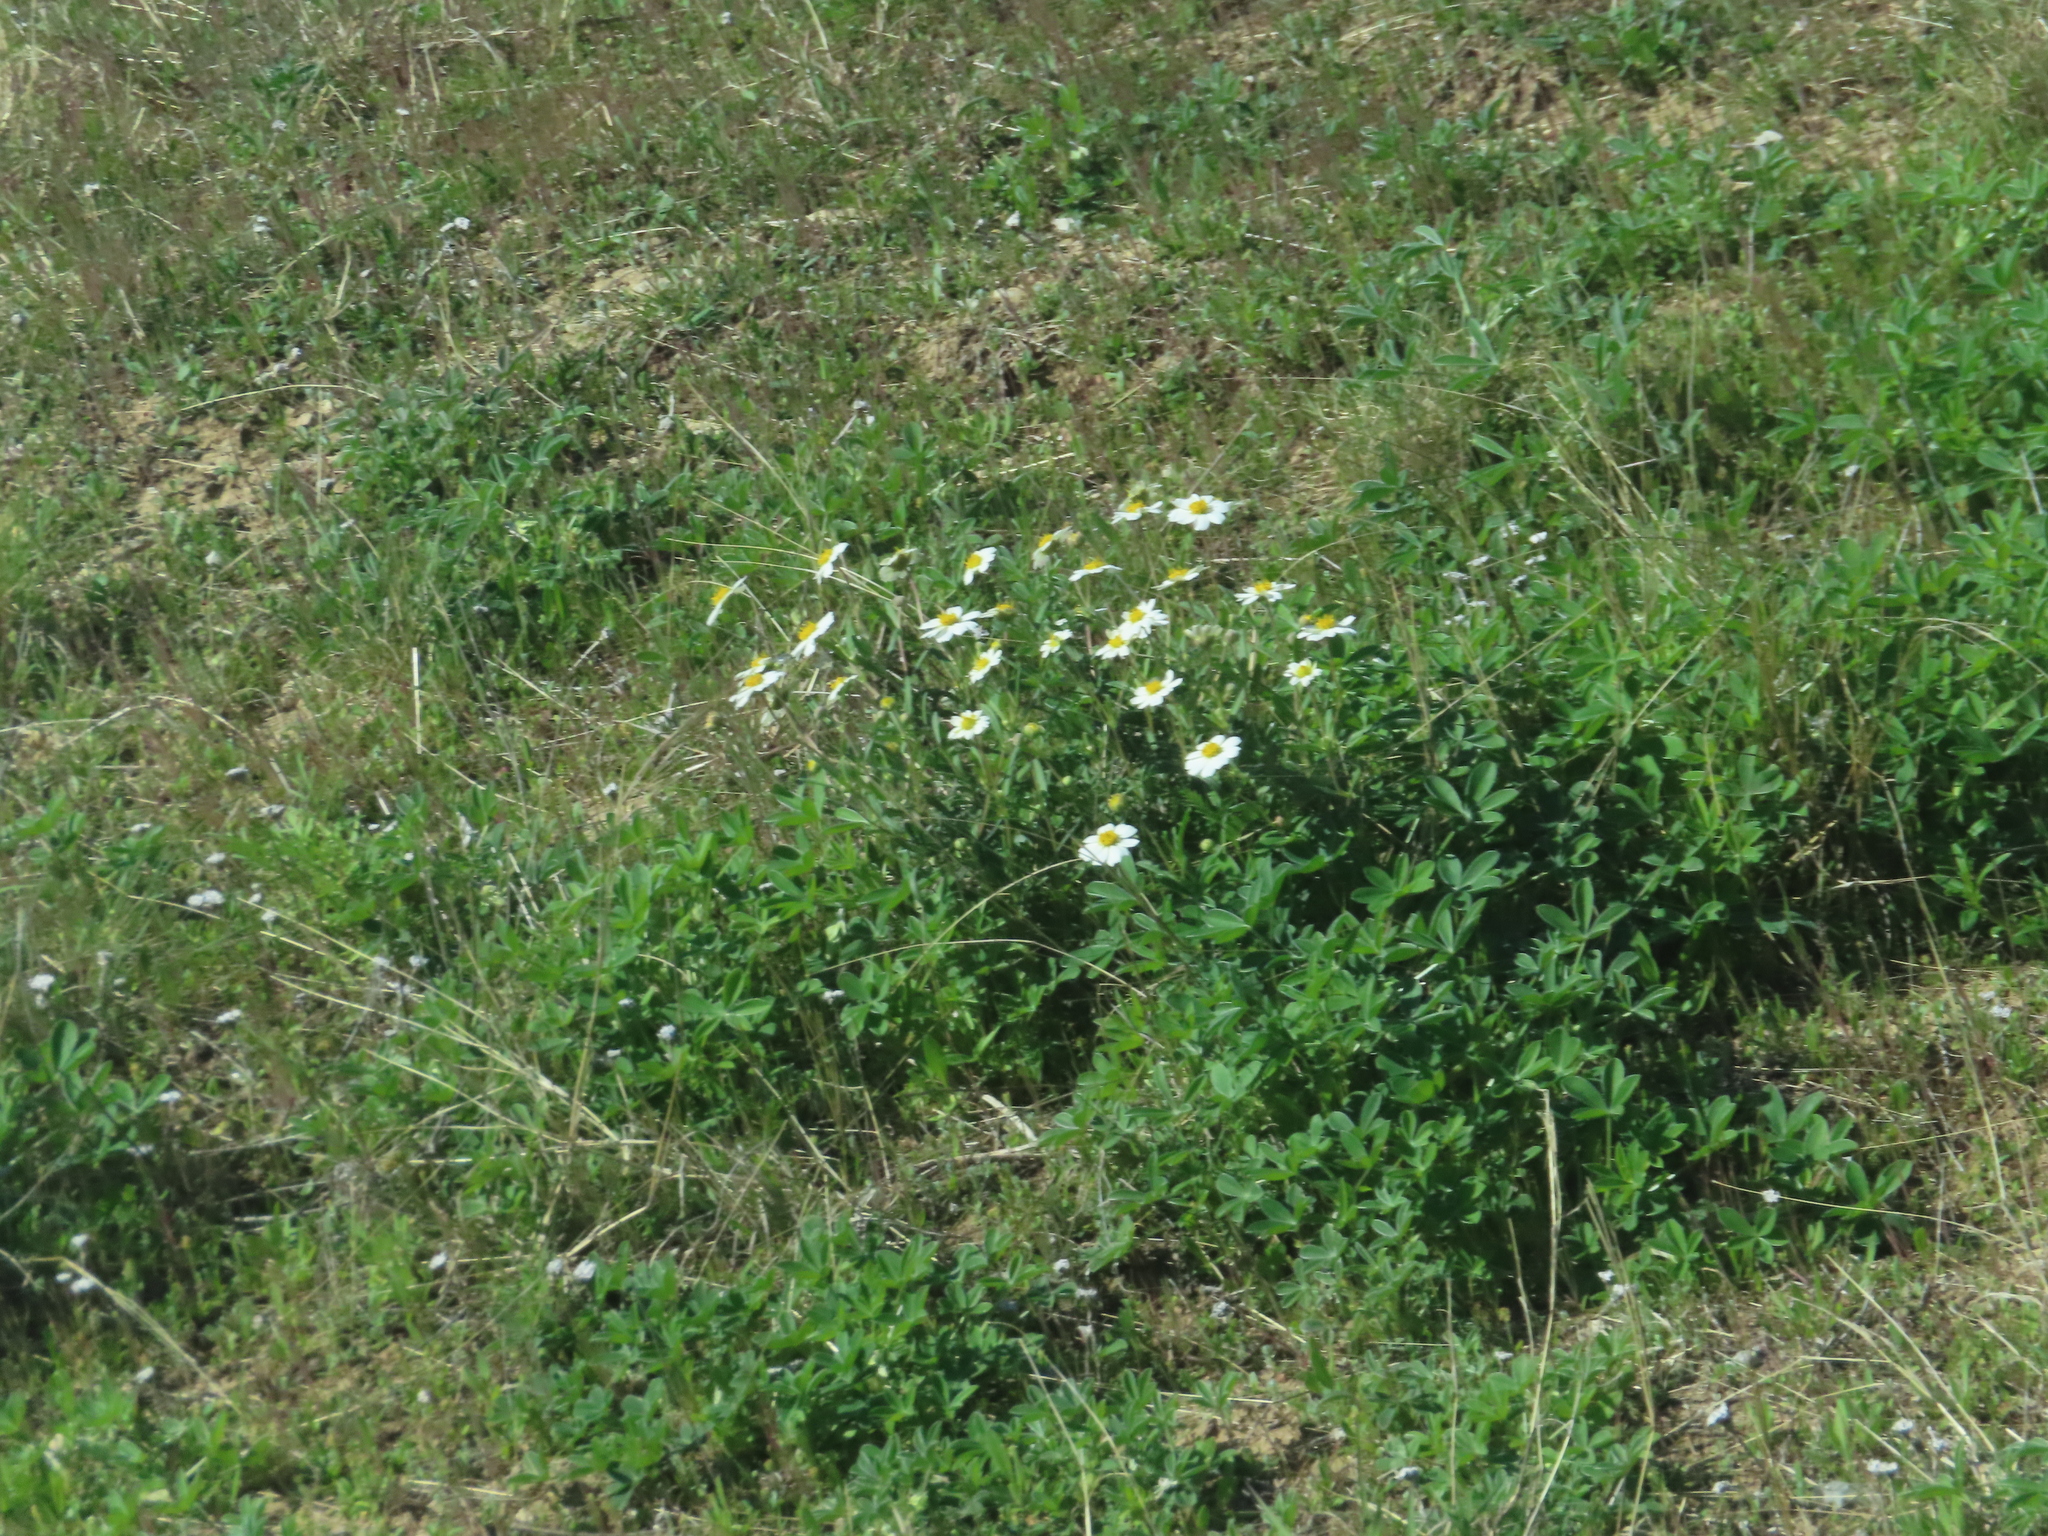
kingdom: Plantae
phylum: Tracheophyta
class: Magnoliopsida
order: Asterales
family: Asteraceae
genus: Melampodium
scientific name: Melampodium leucanthum
